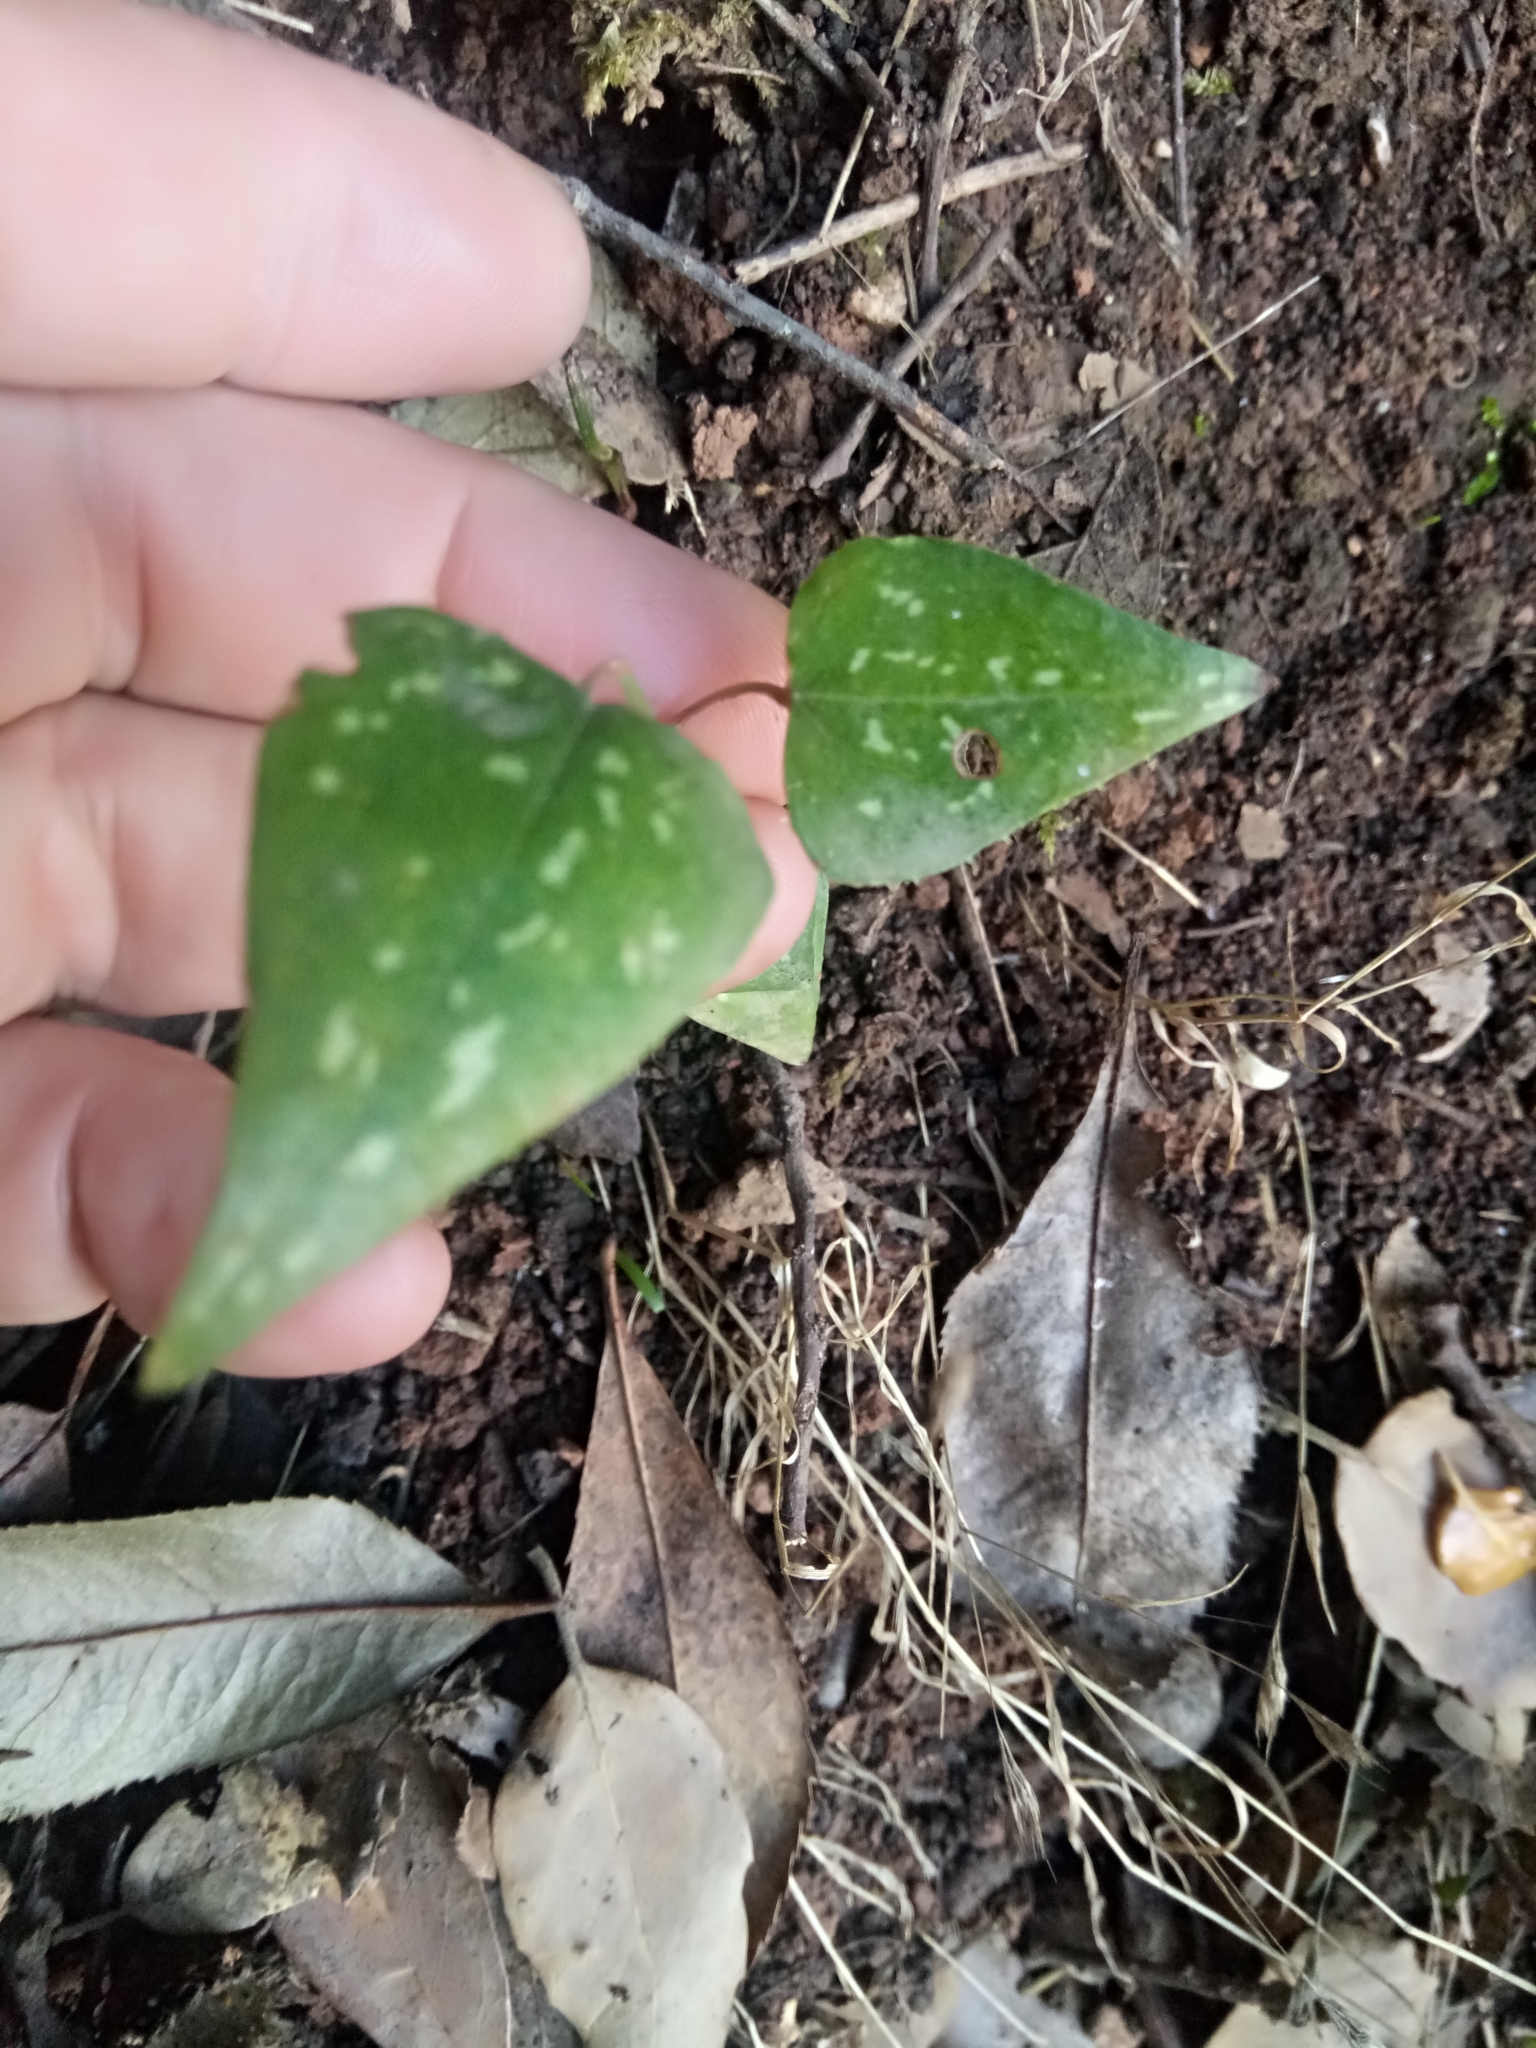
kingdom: Plantae
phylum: Tracheophyta
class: Liliopsida
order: Liliales
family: Smilacaceae
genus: Smilax
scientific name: Smilax aspera
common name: Common smilax
